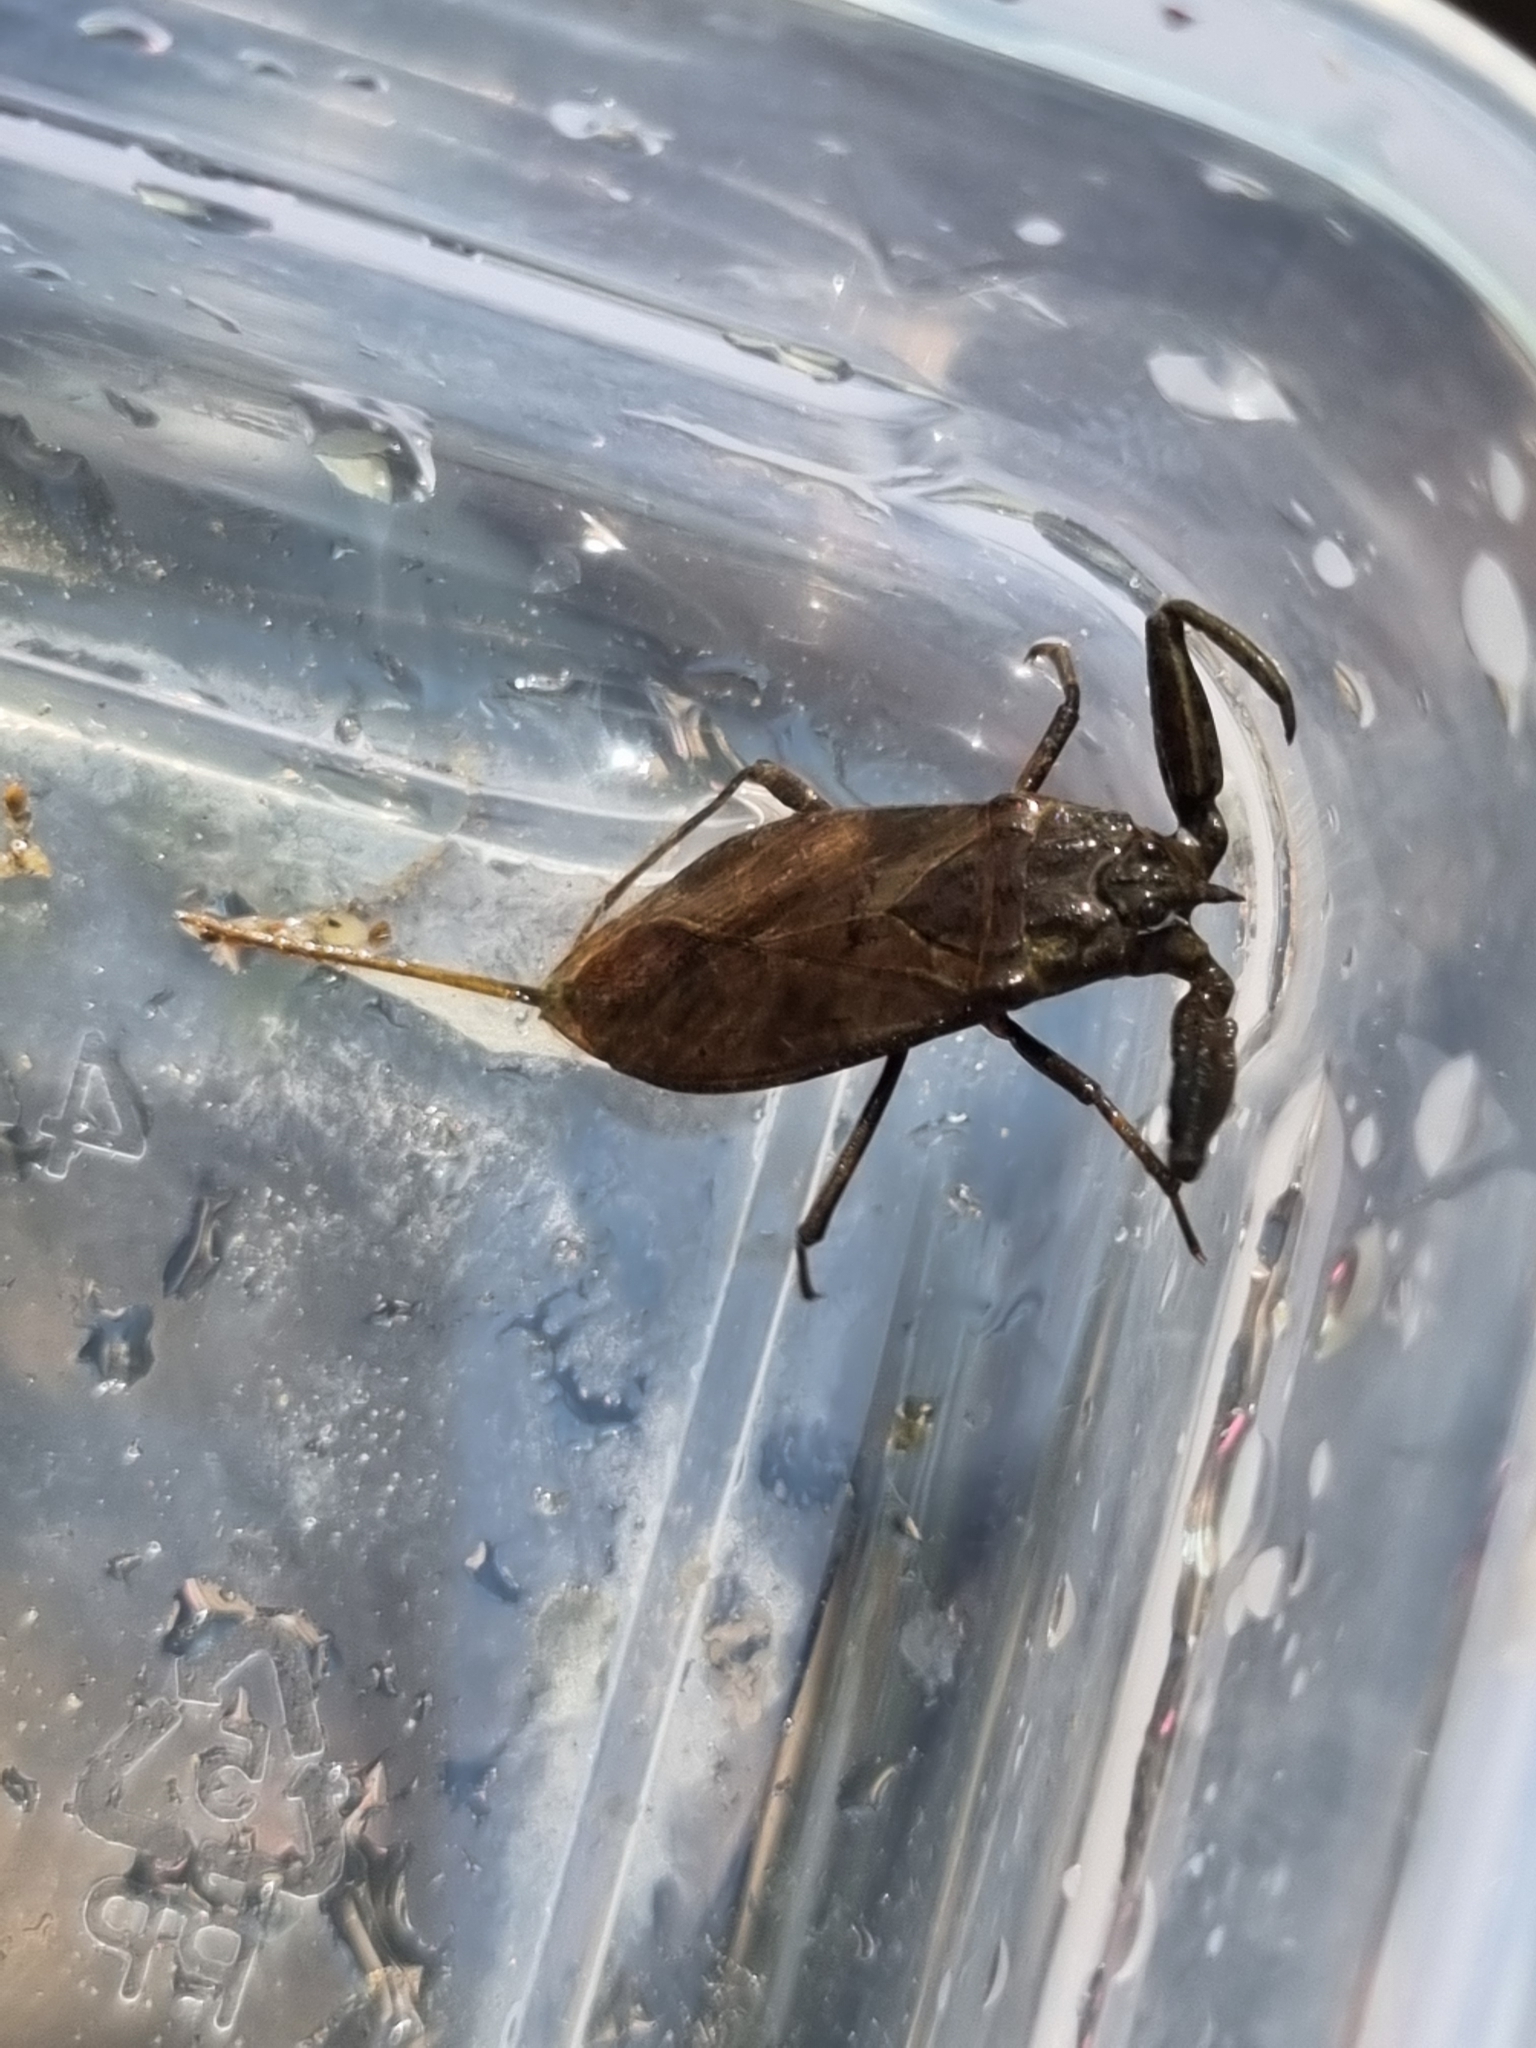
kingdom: Animalia
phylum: Arthropoda
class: Insecta
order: Hemiptera
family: Nepidae
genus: Nepa
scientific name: Nepa cinerea
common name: Water scorpion
